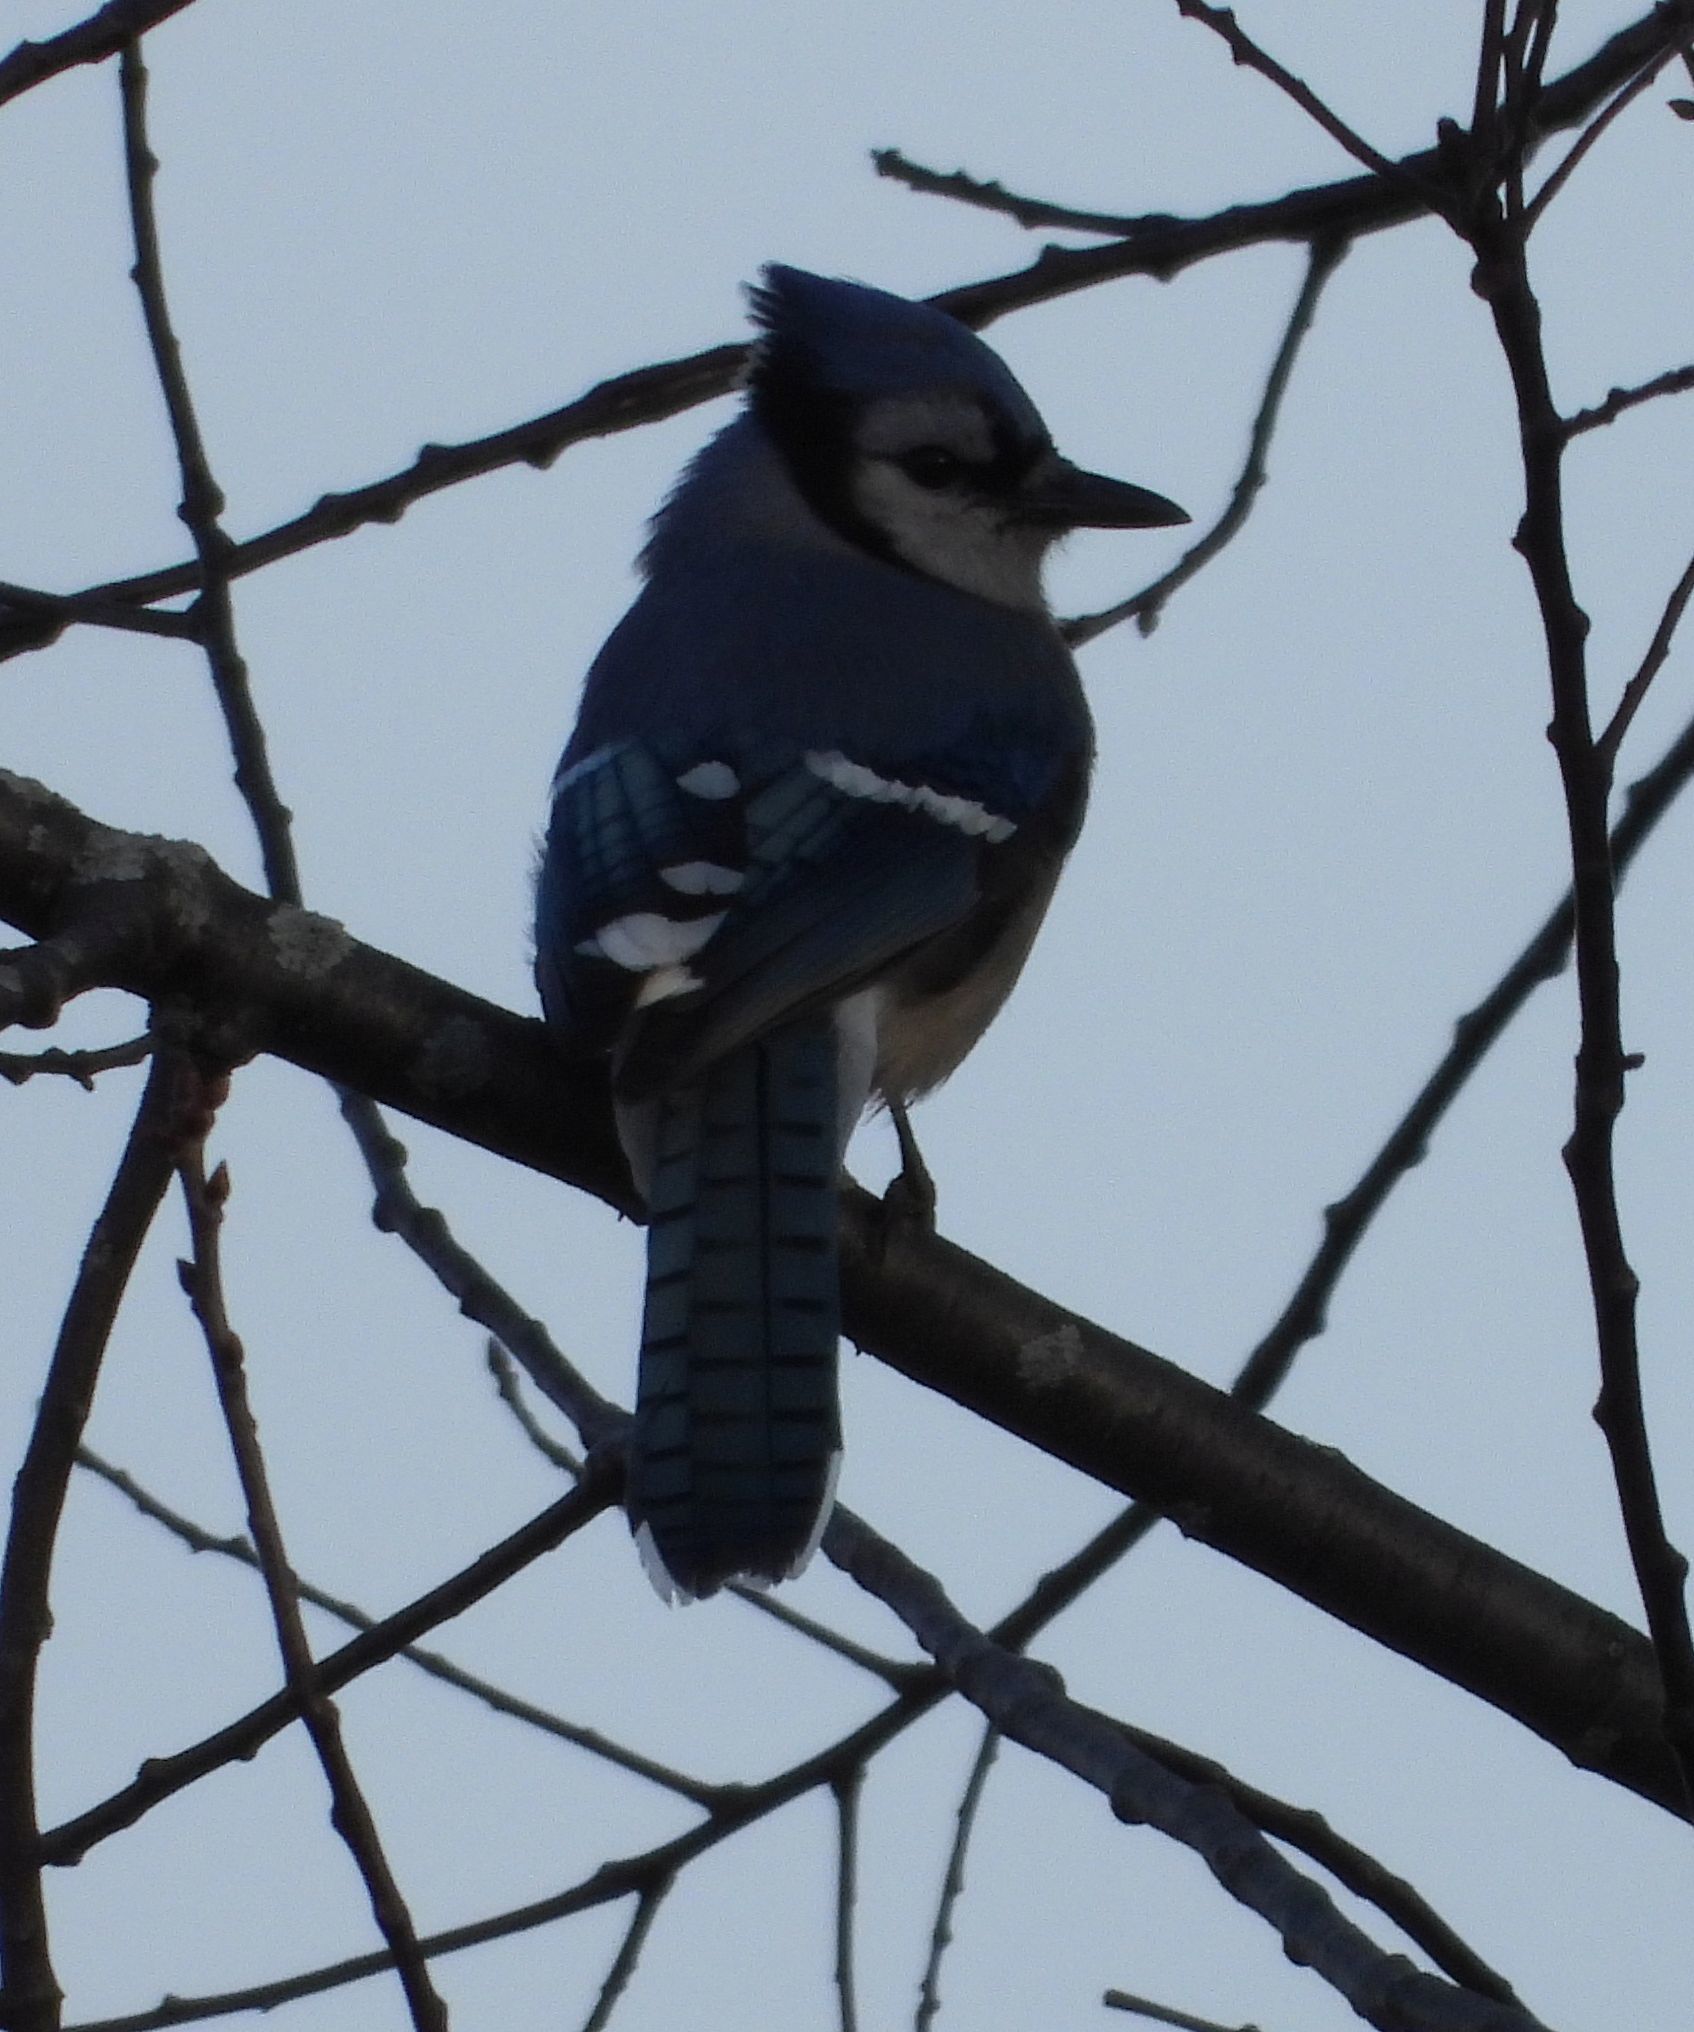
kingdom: Animalia
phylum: Chordata
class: Aves
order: Passeriformes
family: Corvidae
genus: Cyanocitta
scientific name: Cyanocitta cristata
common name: Blue jay
